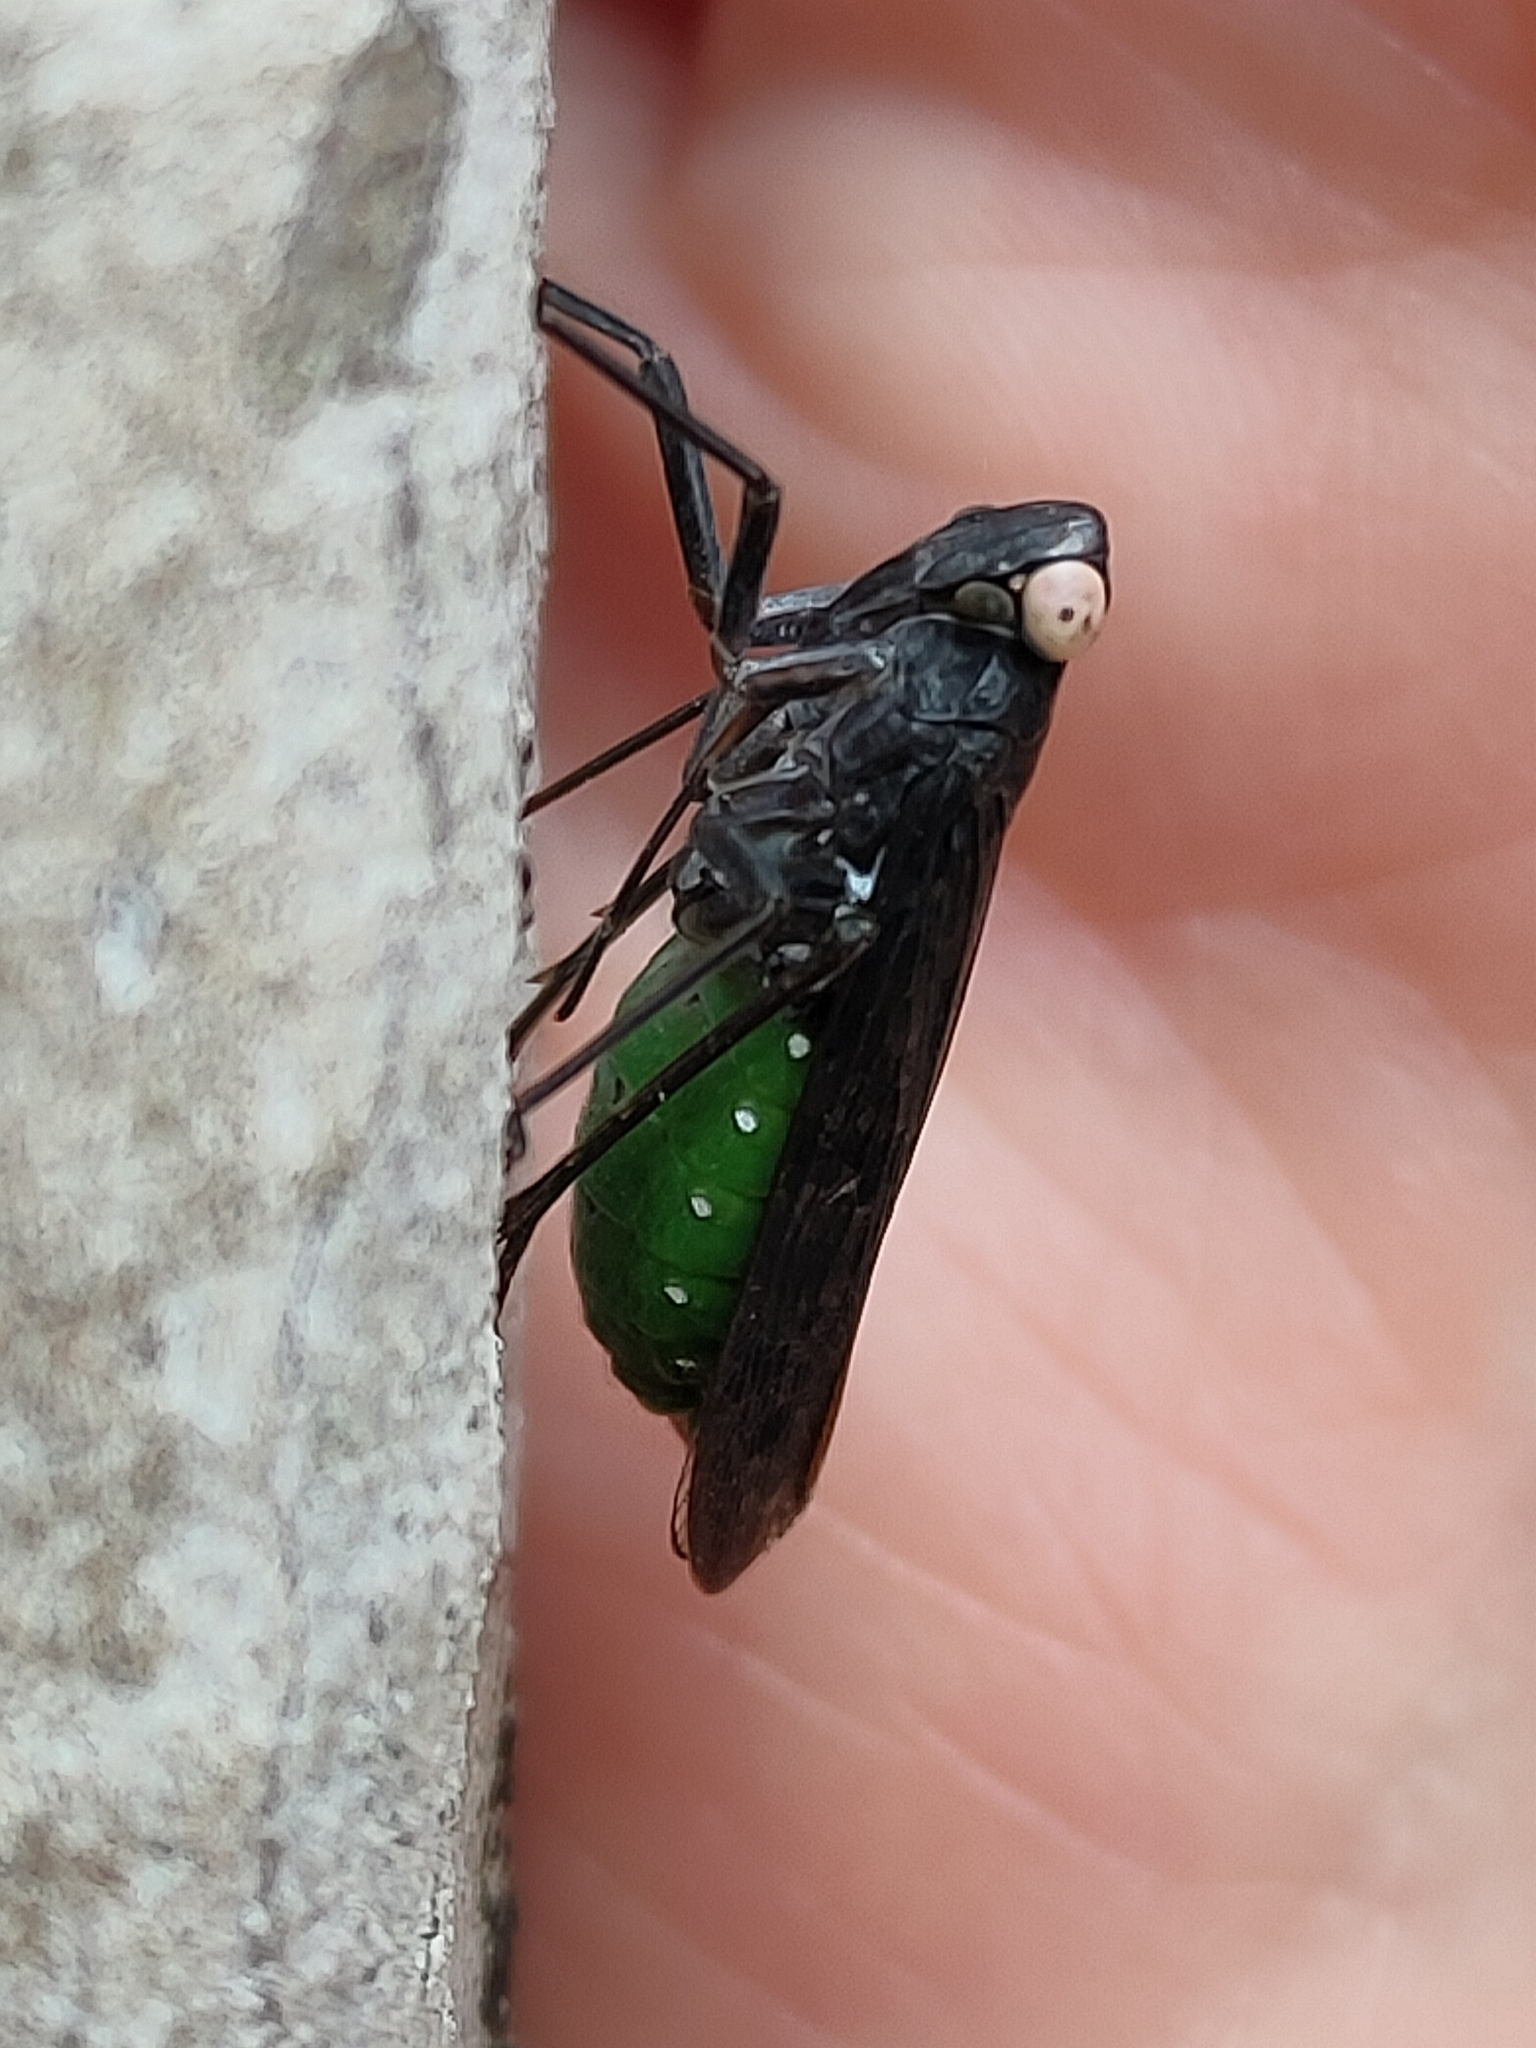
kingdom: Animalia
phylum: Arthropoda
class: Insecta
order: Hemiptera
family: Fulgoridae
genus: Desudaba
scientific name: Desudaba psittacus
